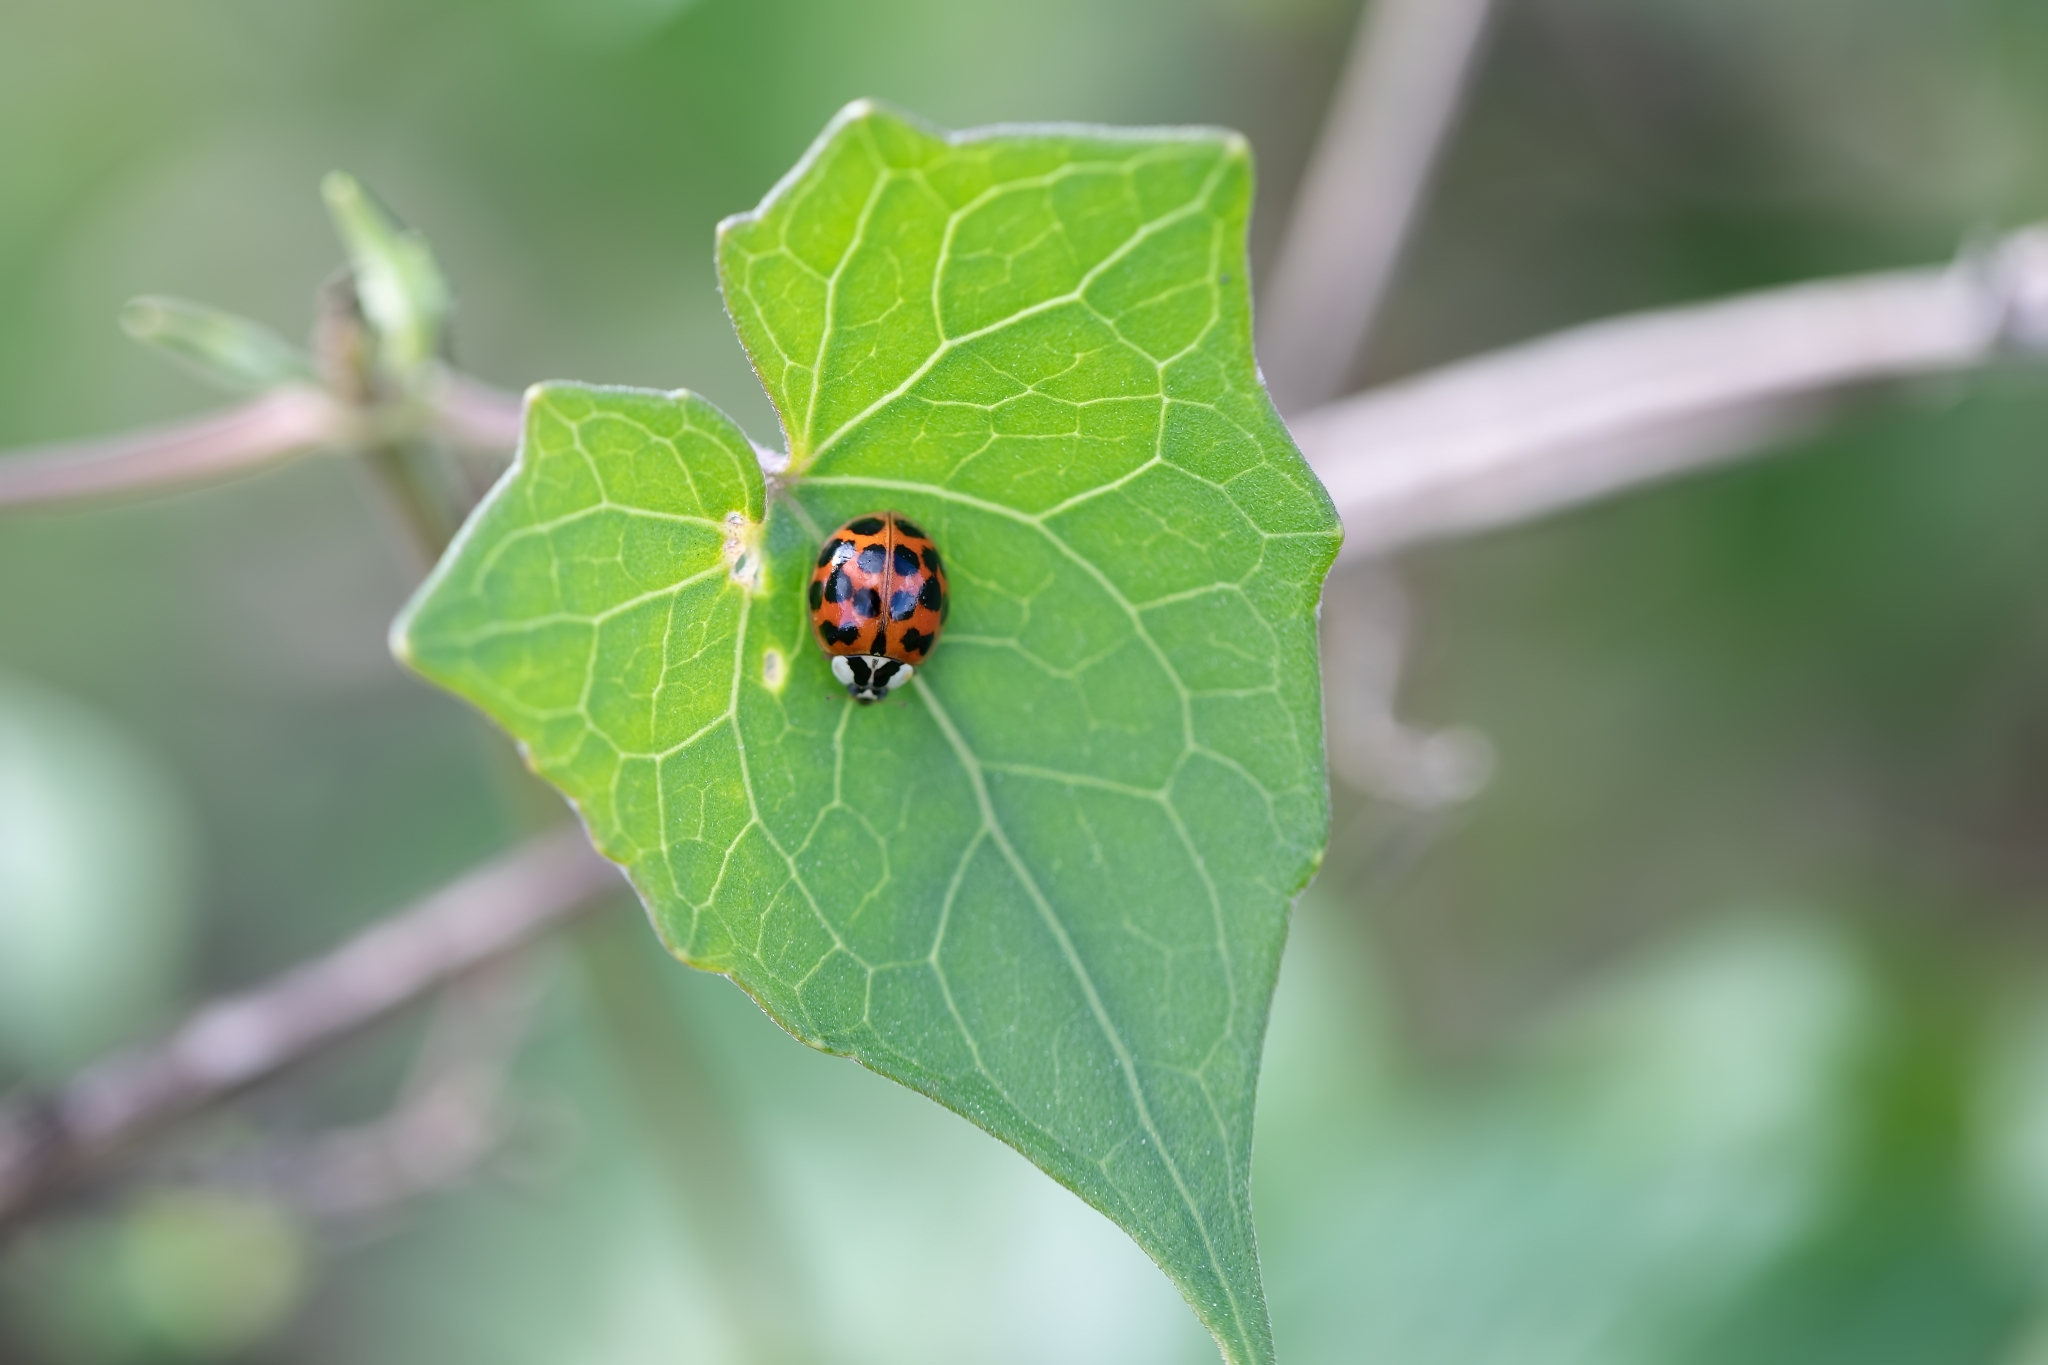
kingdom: Animalia
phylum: Arthropoda
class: Insecta
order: Coleoptera
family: Coccinellidae
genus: Harmonia
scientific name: Harmonia axyridis
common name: Harlequin ladybird
